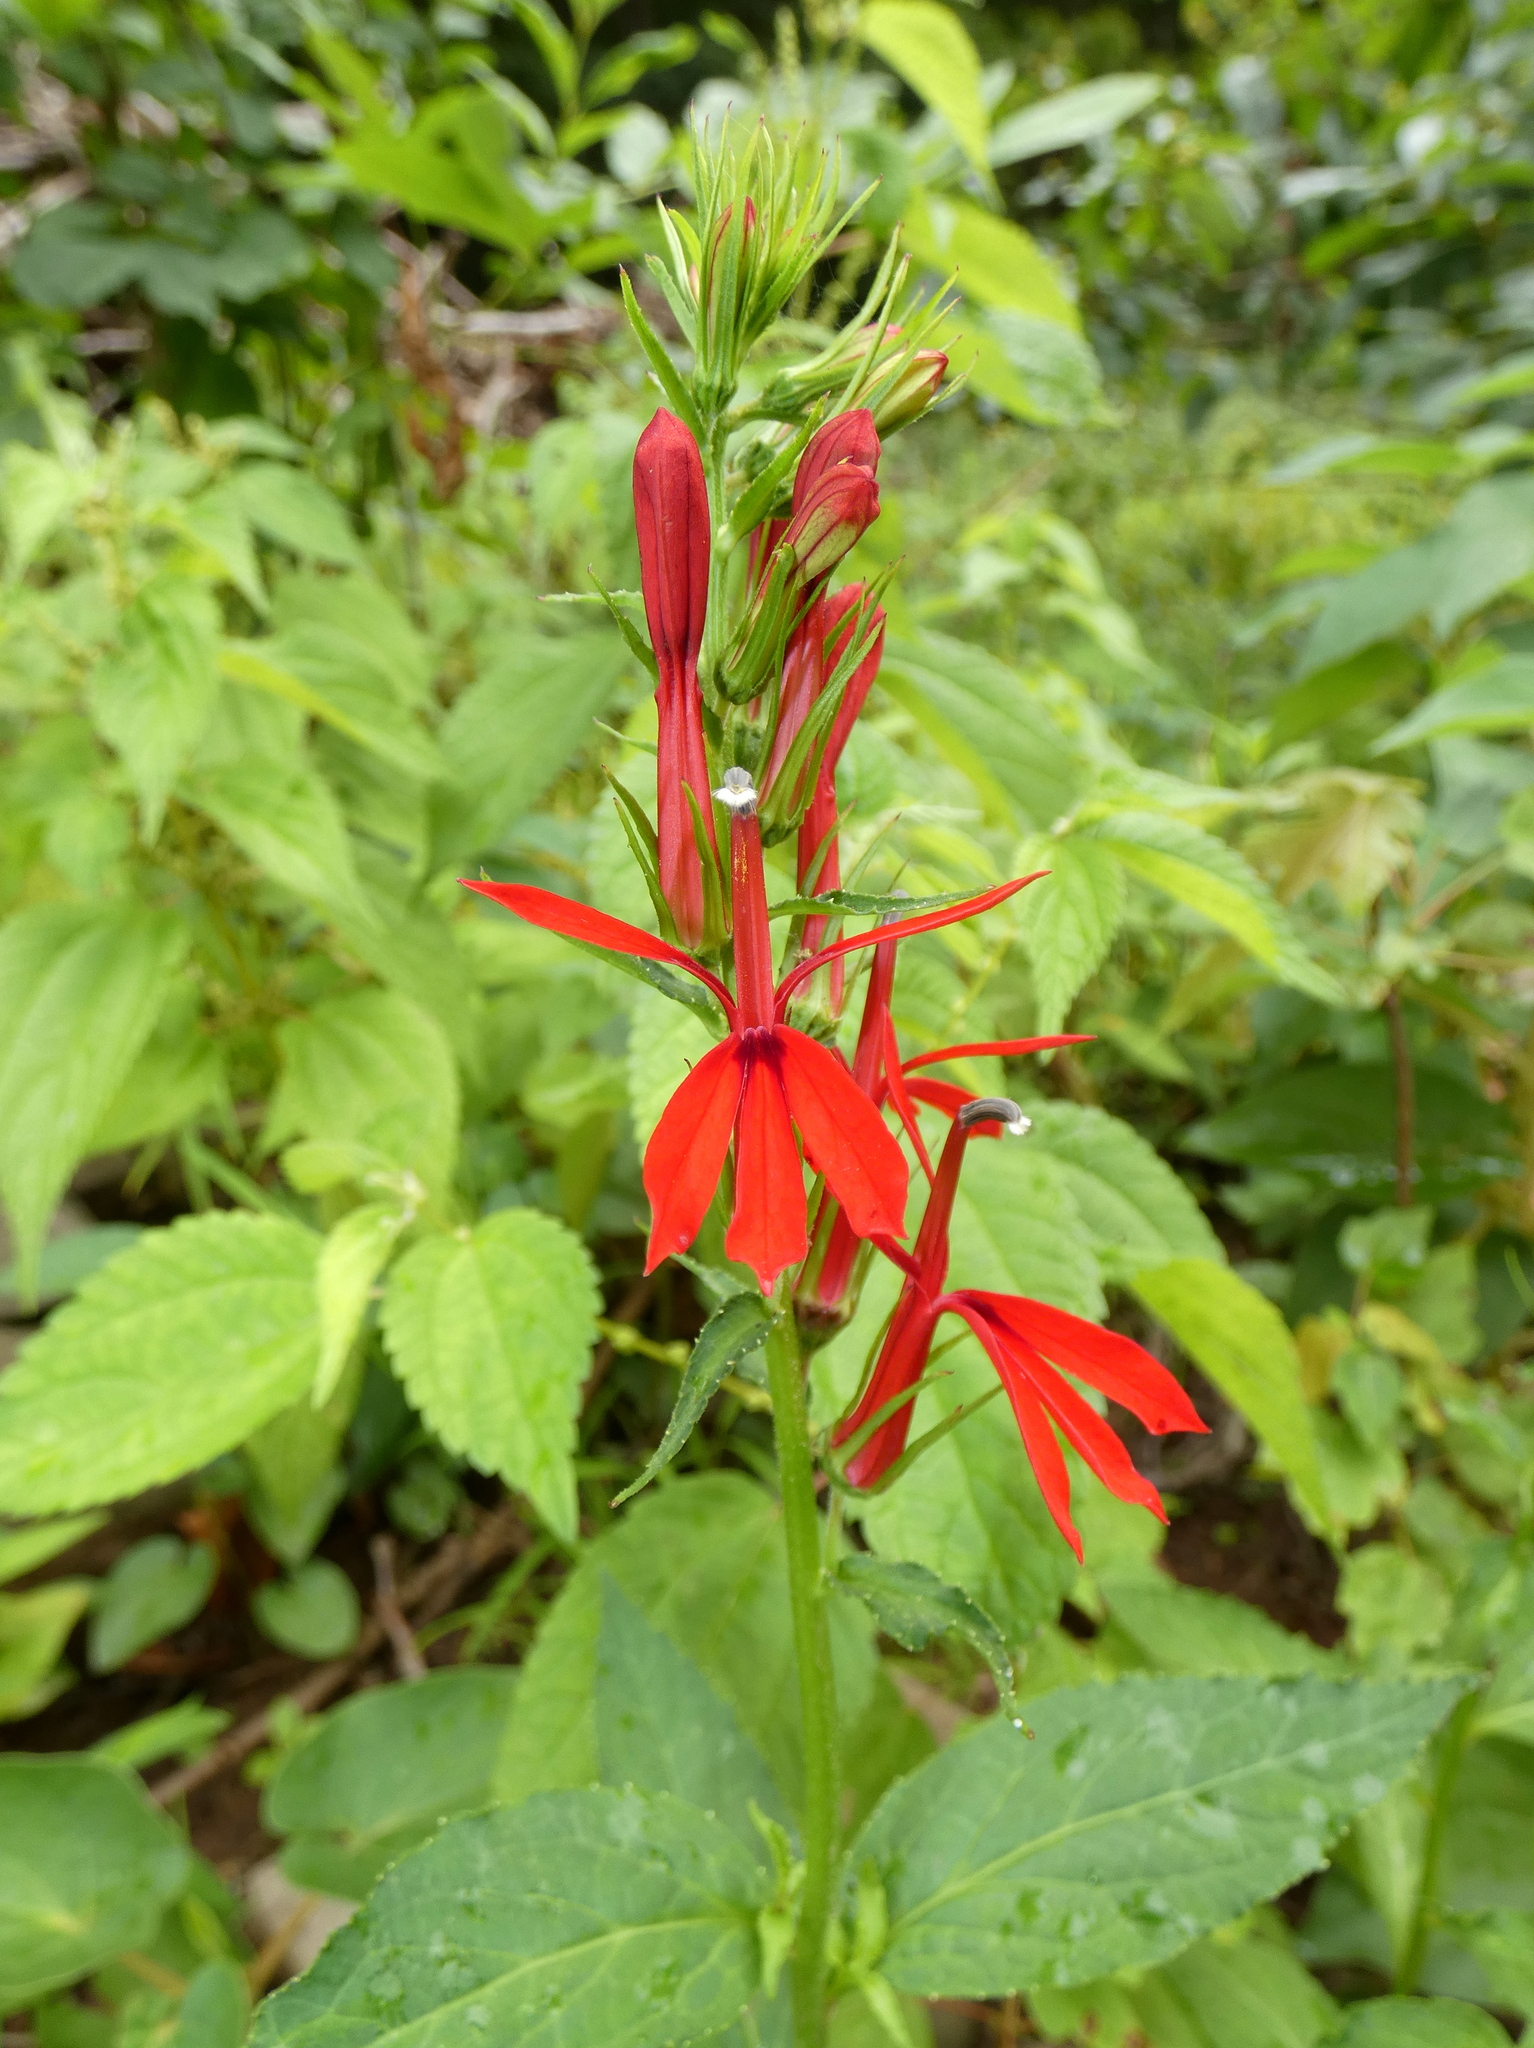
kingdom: Plantae
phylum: Tracheophyta
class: Magnoliopsida
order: Asterales
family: Campanulaceae
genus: Lobelia
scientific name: Lobelia cardinalis
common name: Cardinal flower
